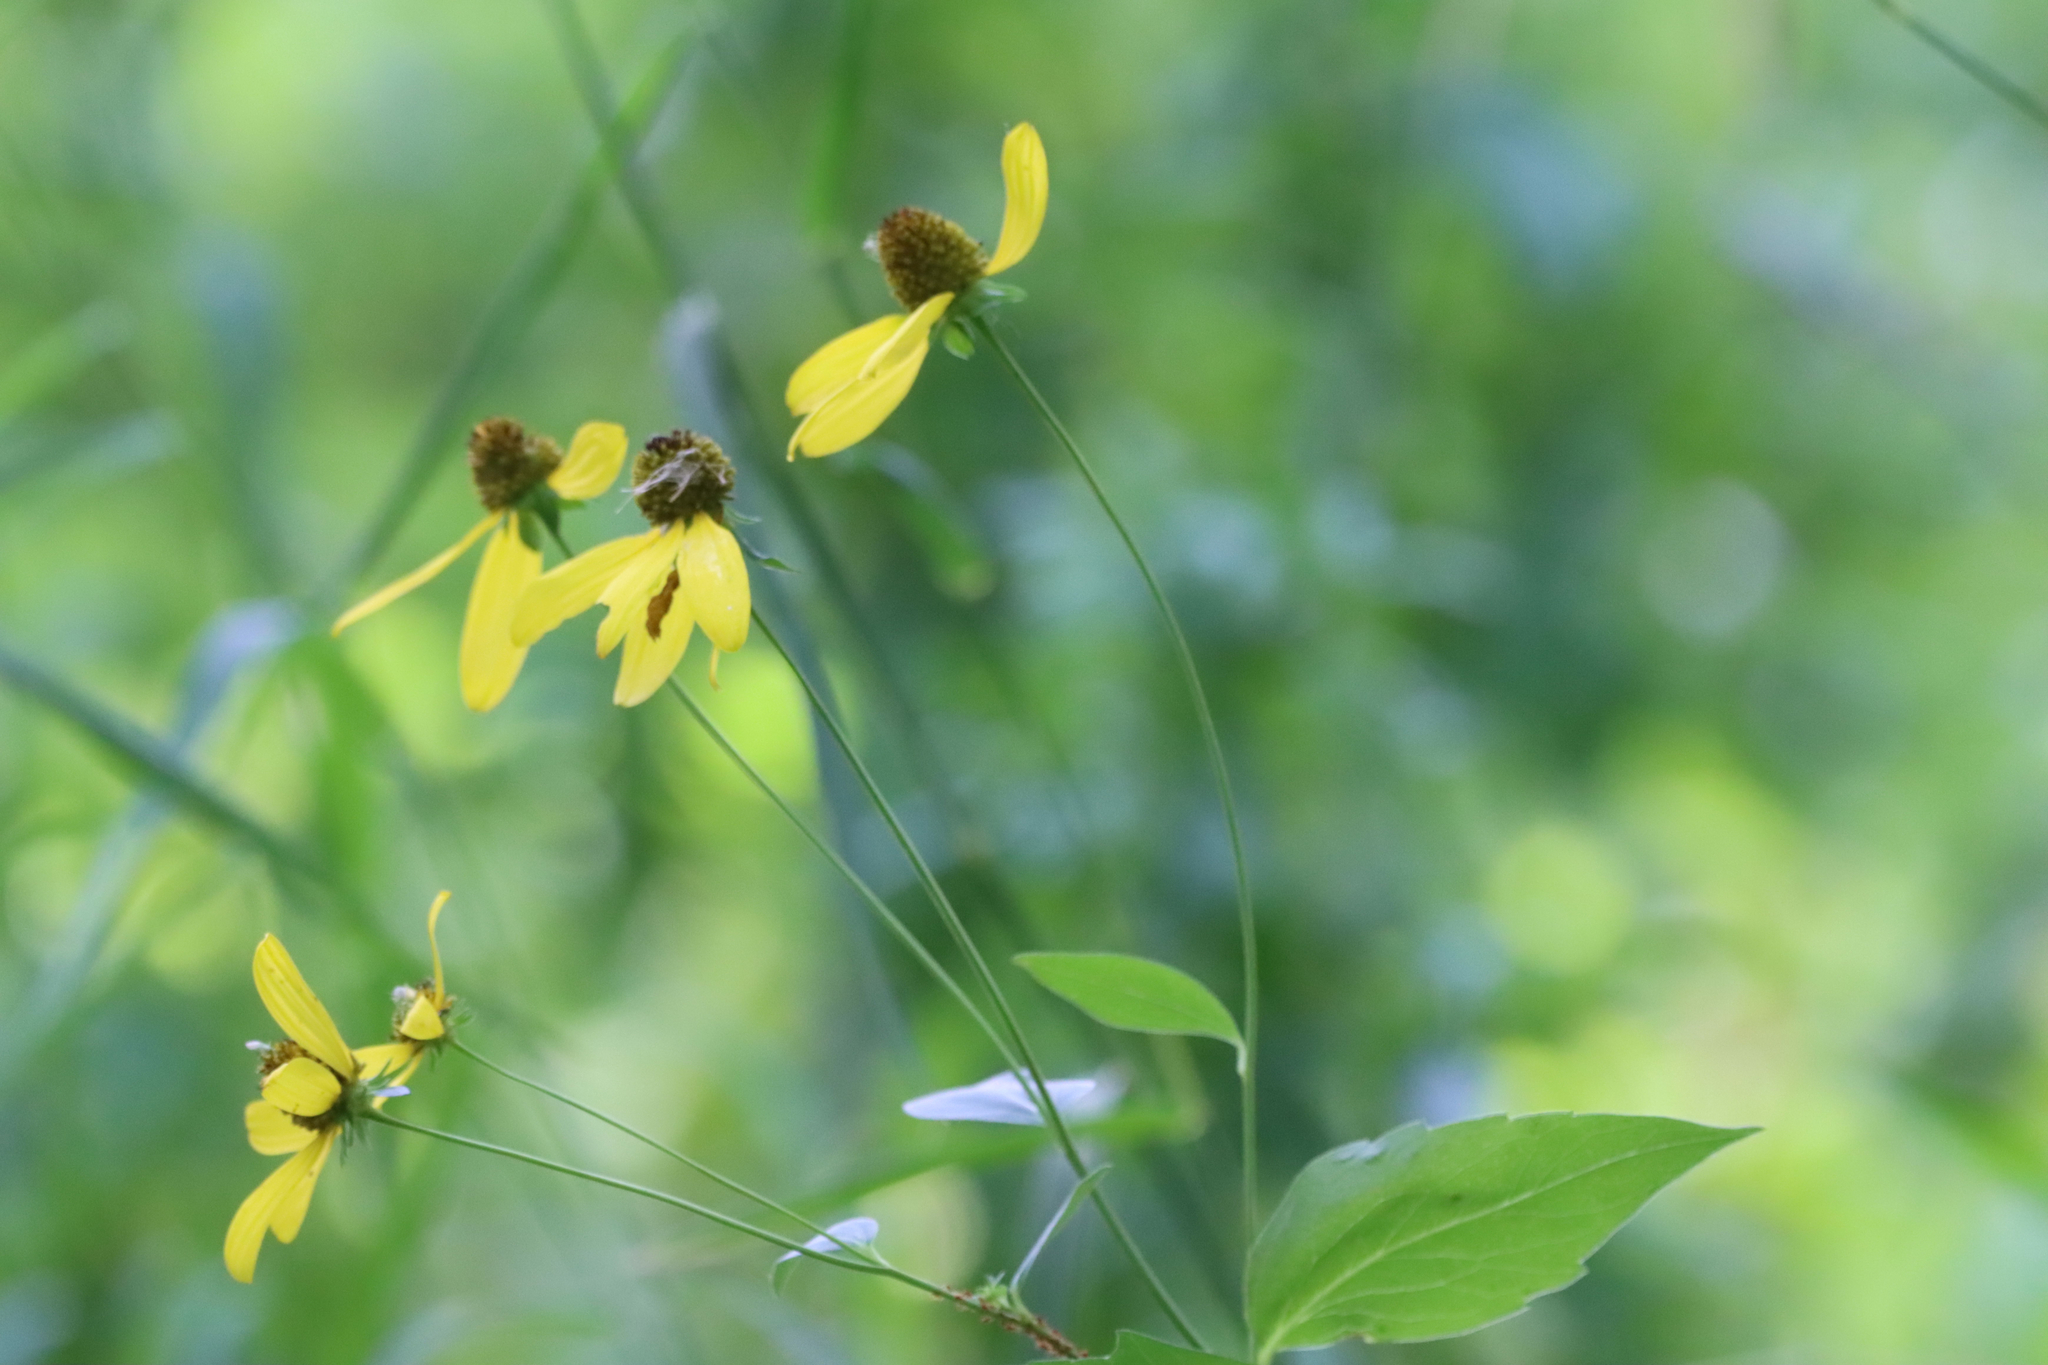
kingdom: Plantae
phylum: Tracheophyta
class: Magnoliopsida
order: Asterales
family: Asteraceae
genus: Rudbeckia
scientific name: Rudbeckia laciniata
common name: Coneflower
